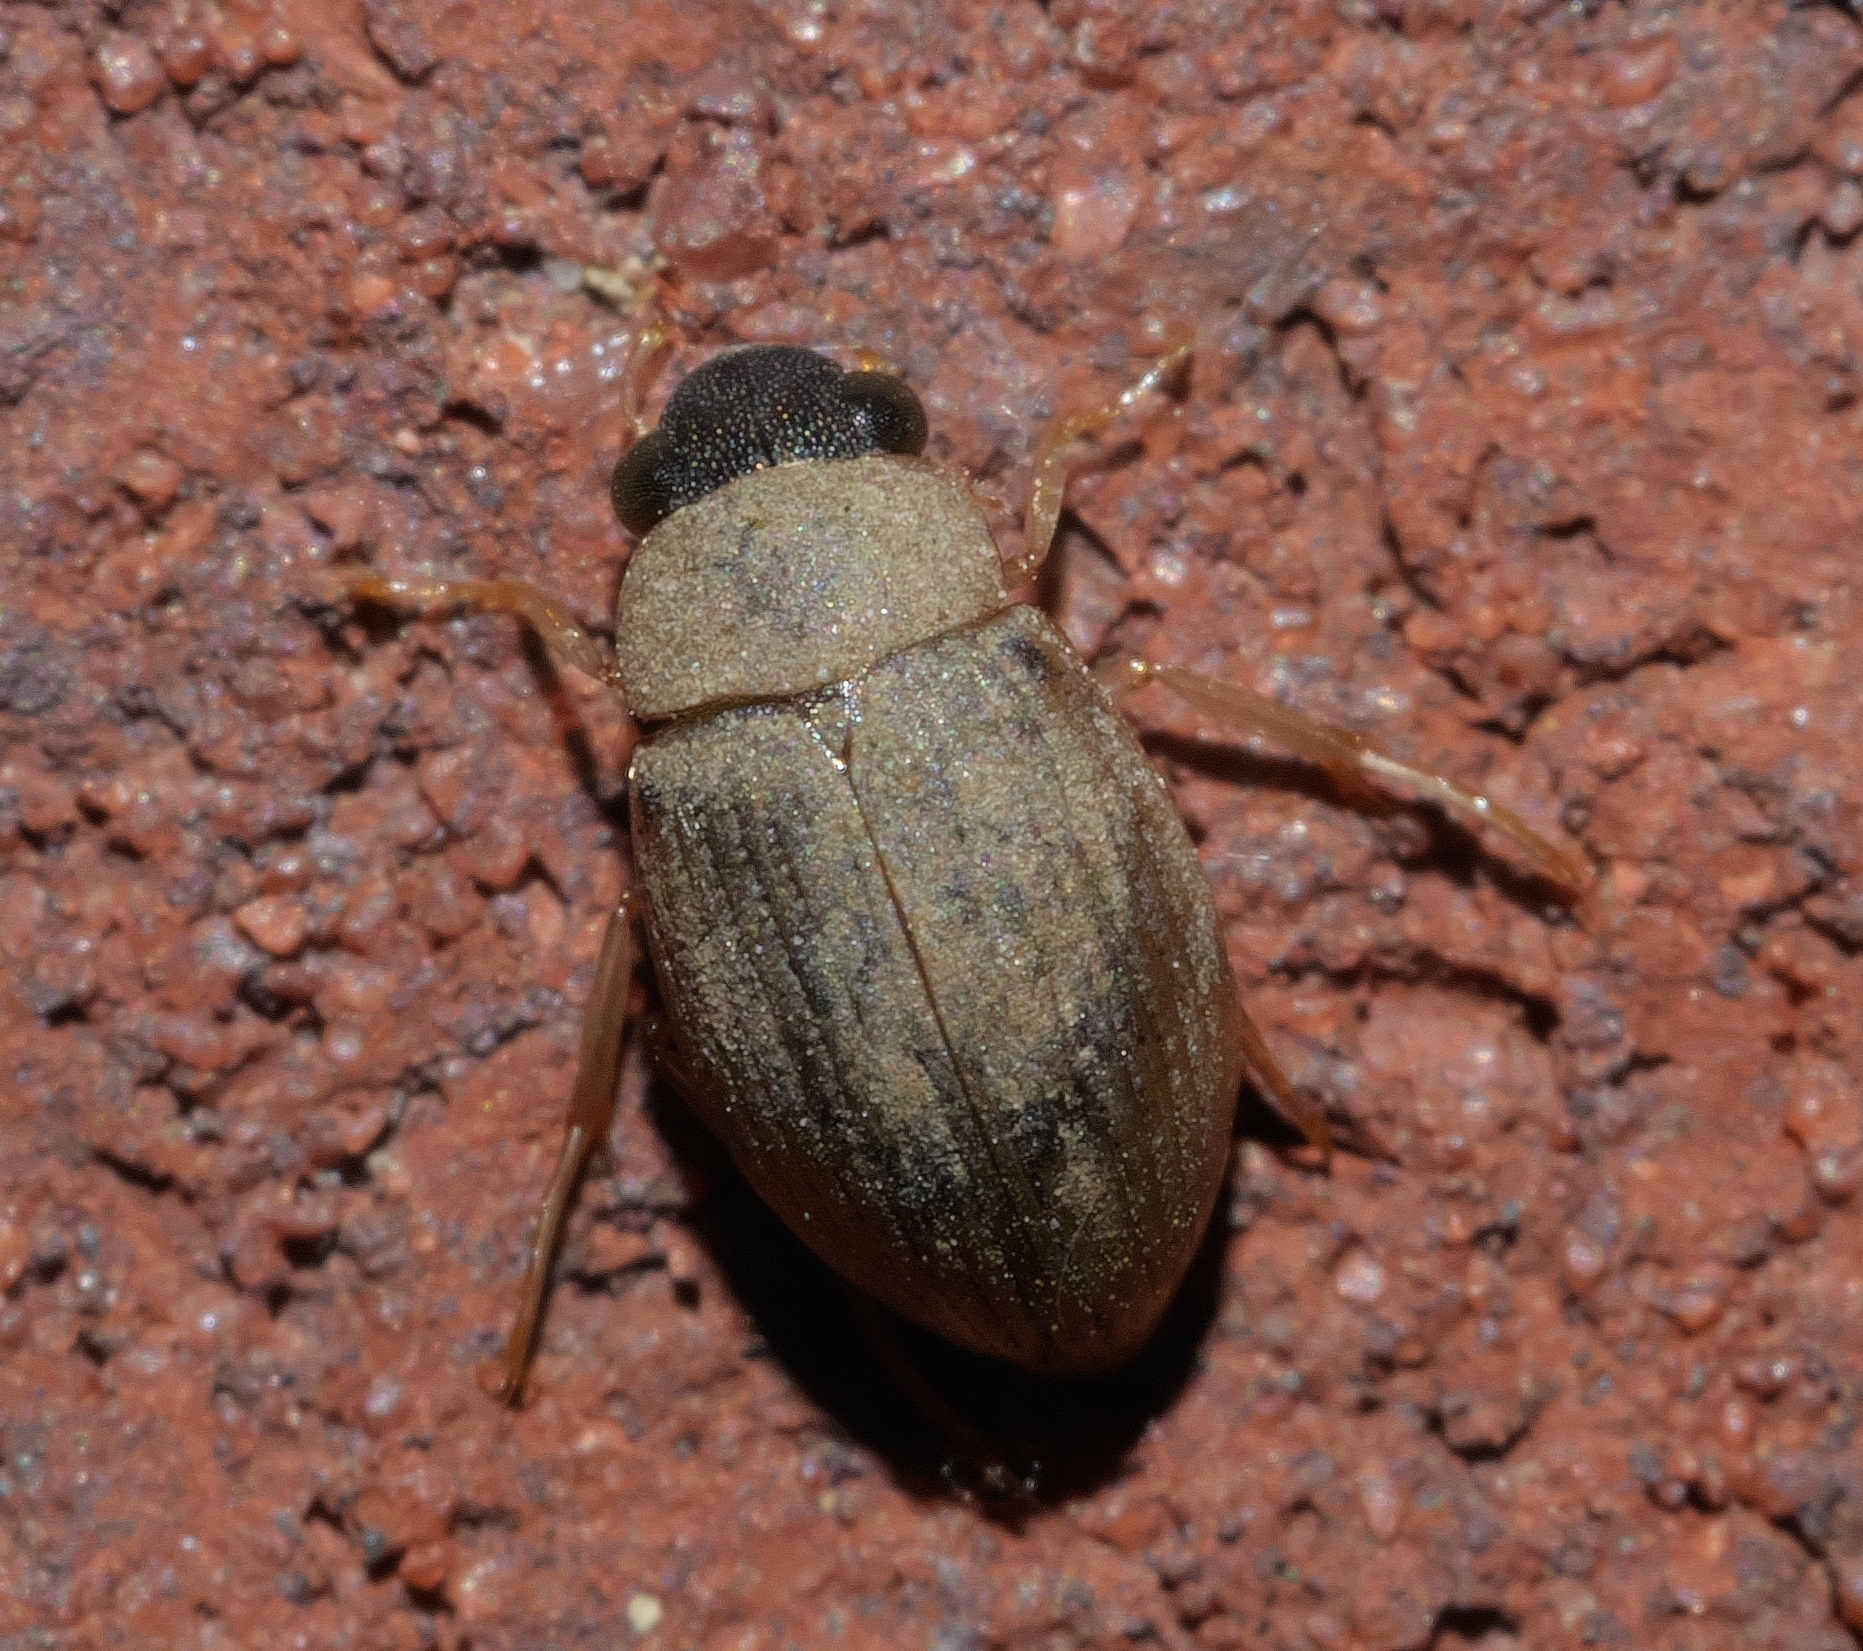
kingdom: Animalia
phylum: Arthropoda
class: Insecta
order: Coleoptera
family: Hydrophilidae
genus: Berosus
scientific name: Berosus
